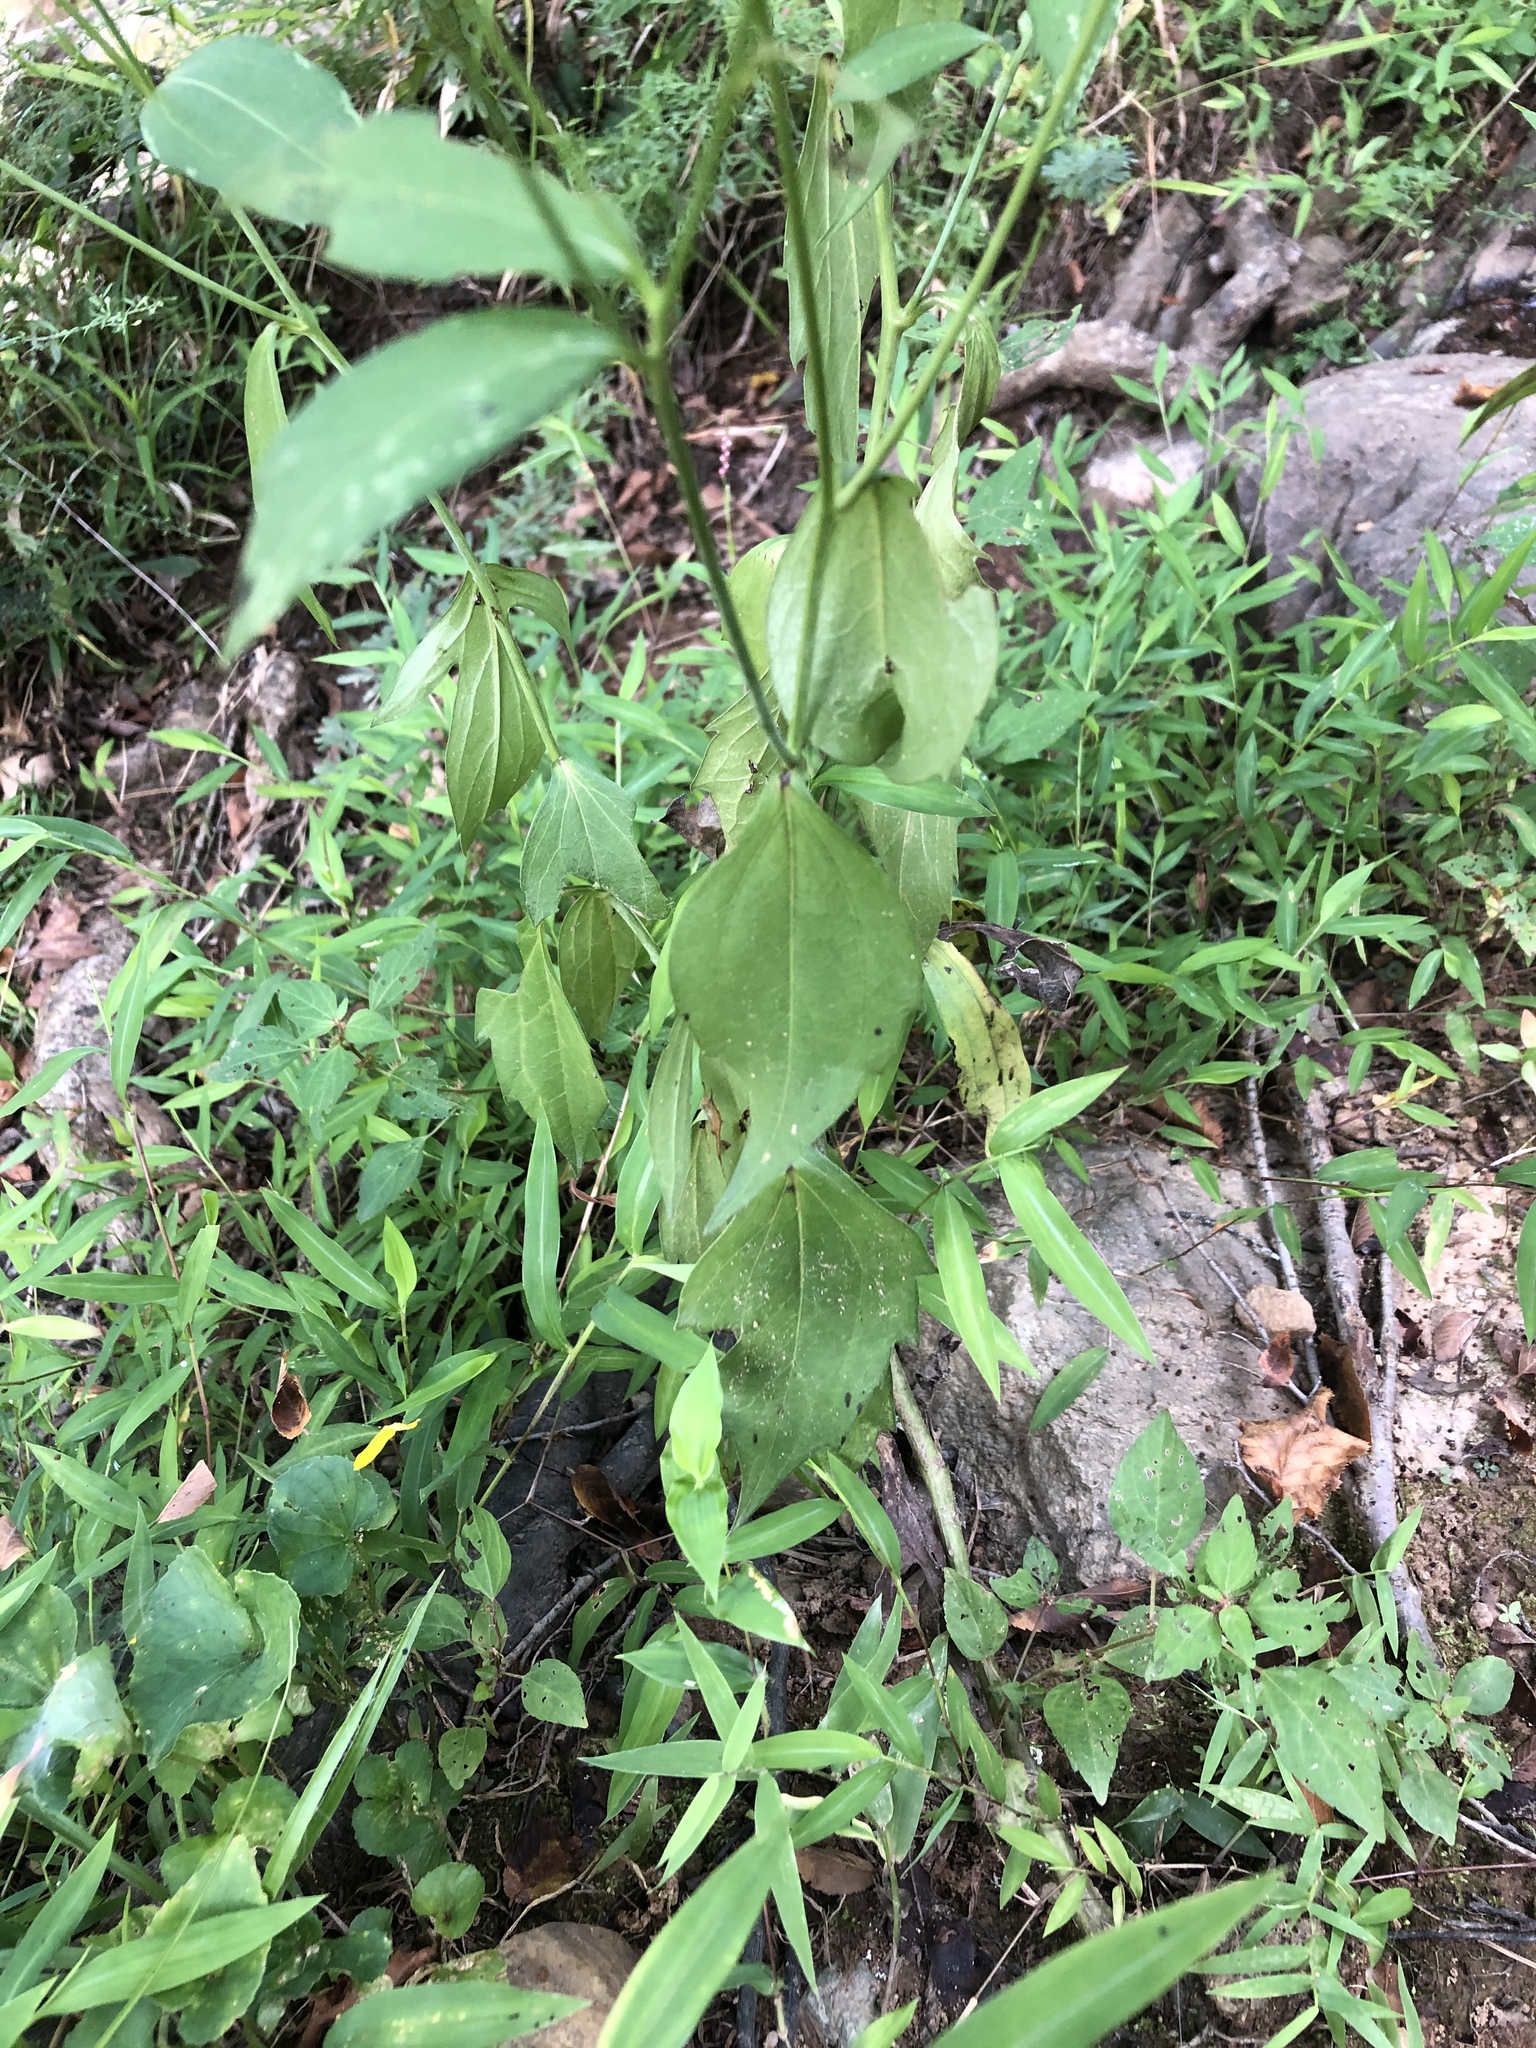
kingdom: Plantae
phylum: Tracheophyta
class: Magnoliopsida
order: Asterales
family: Asteraceae
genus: Rudbeckia
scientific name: Rudbeckia laciniata
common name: Coneflower
